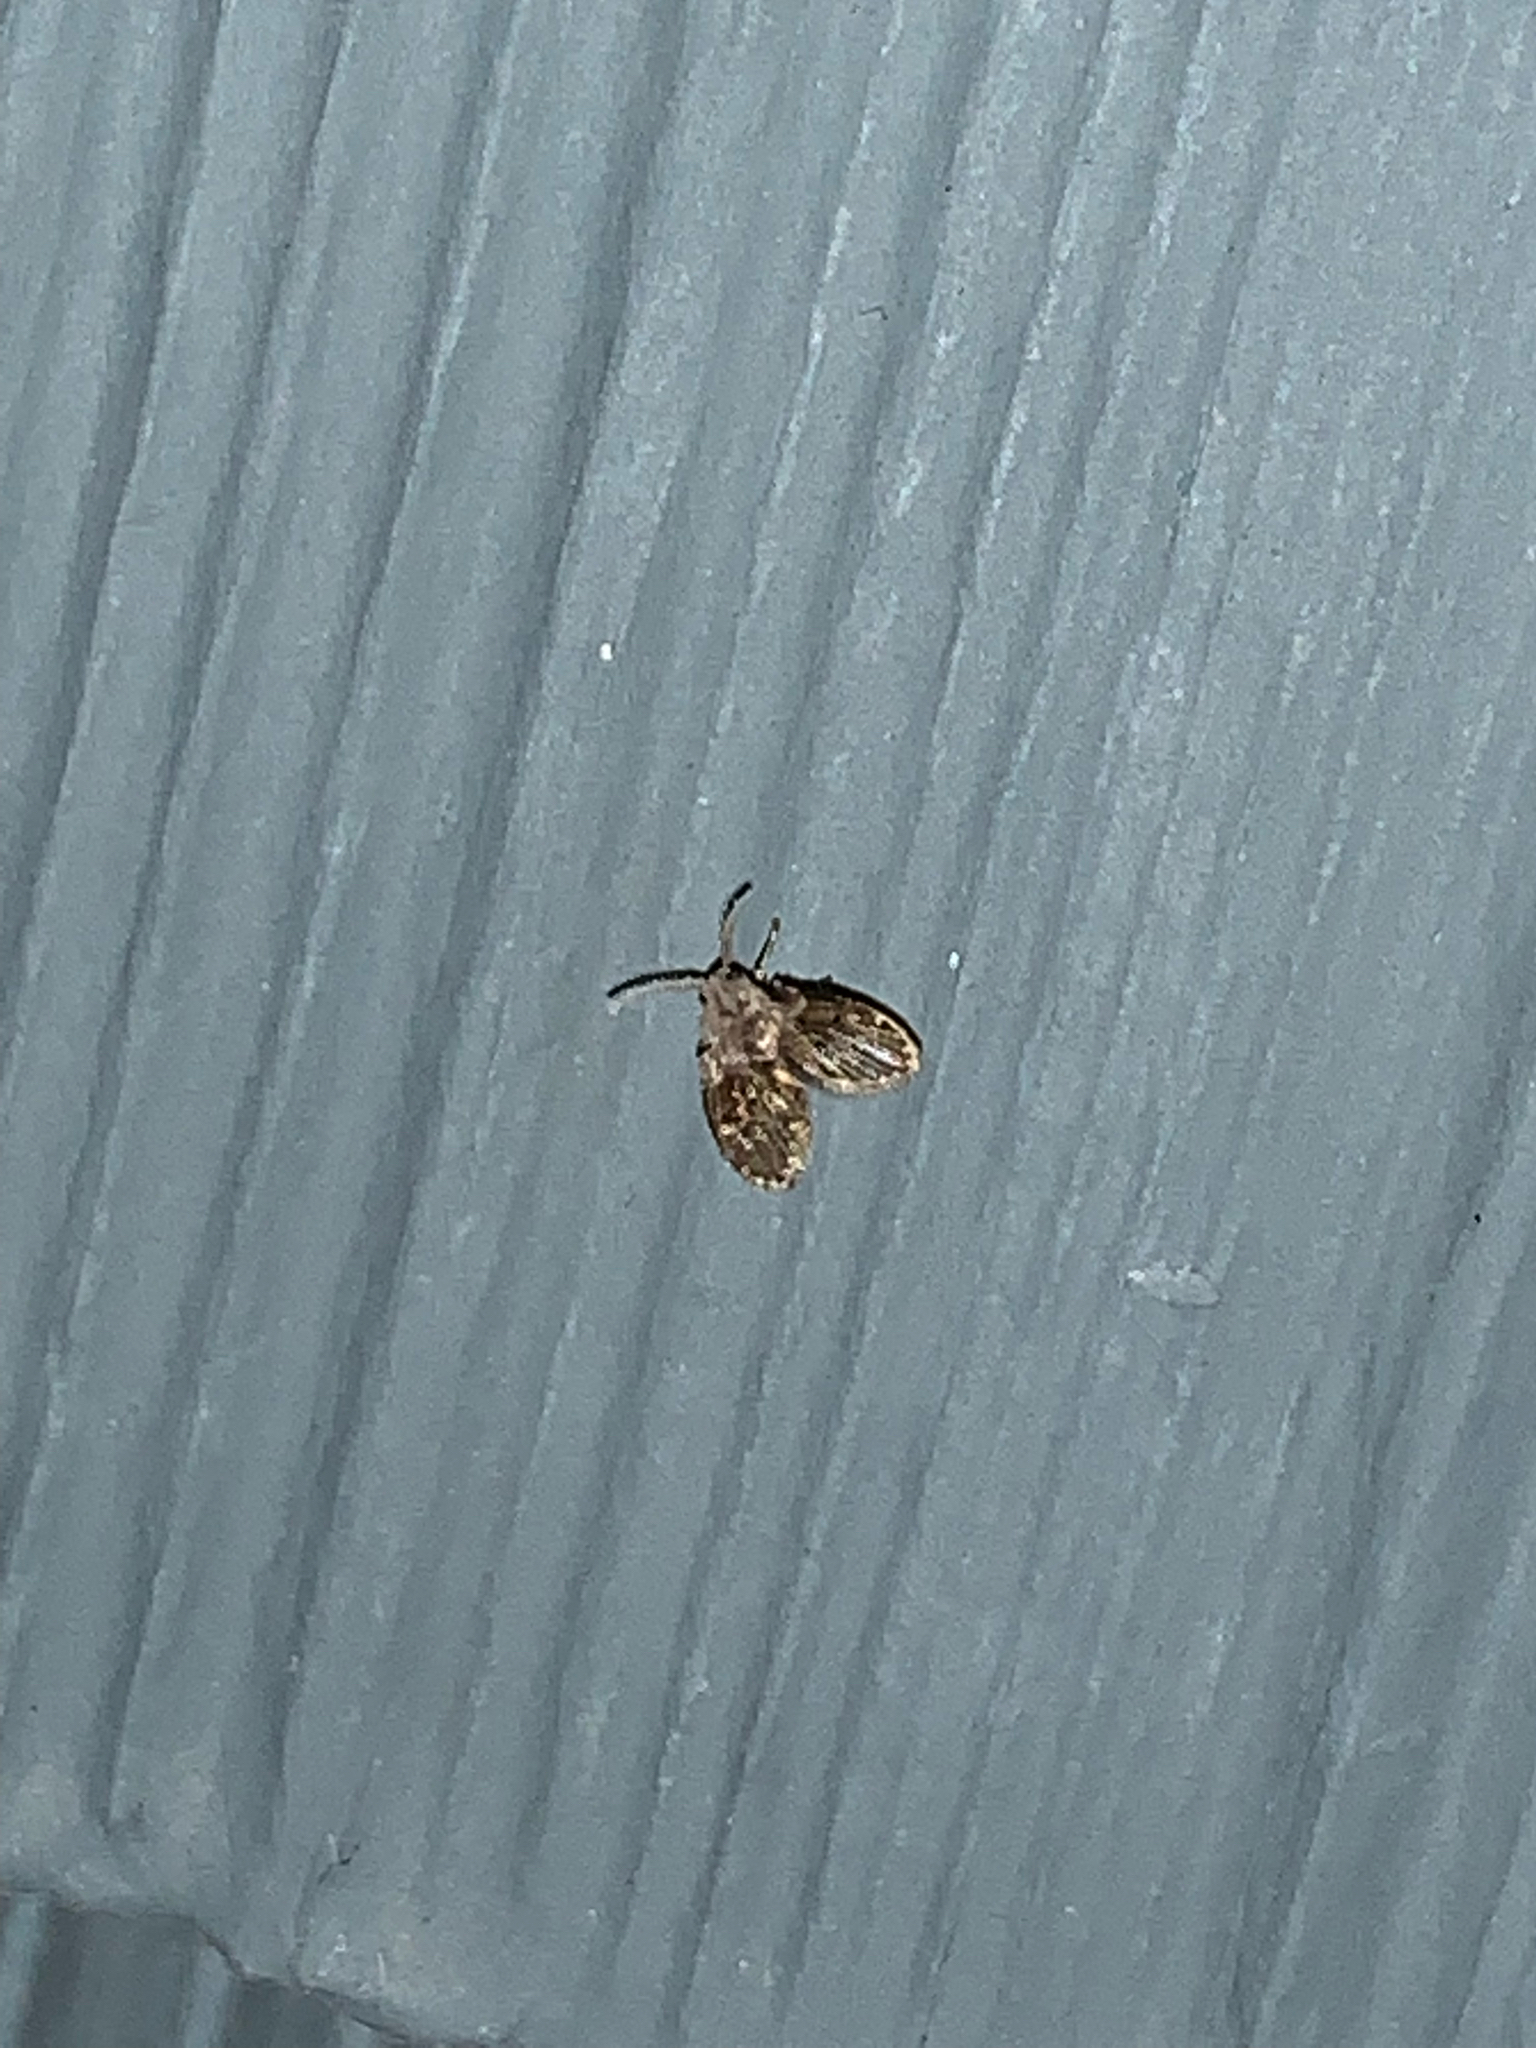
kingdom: Animalia
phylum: Arthropoda
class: Insecta
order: Diptera
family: Psychodidae
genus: Clogmia
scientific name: Clogmia albipunctatus
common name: White-spotted moth fly
